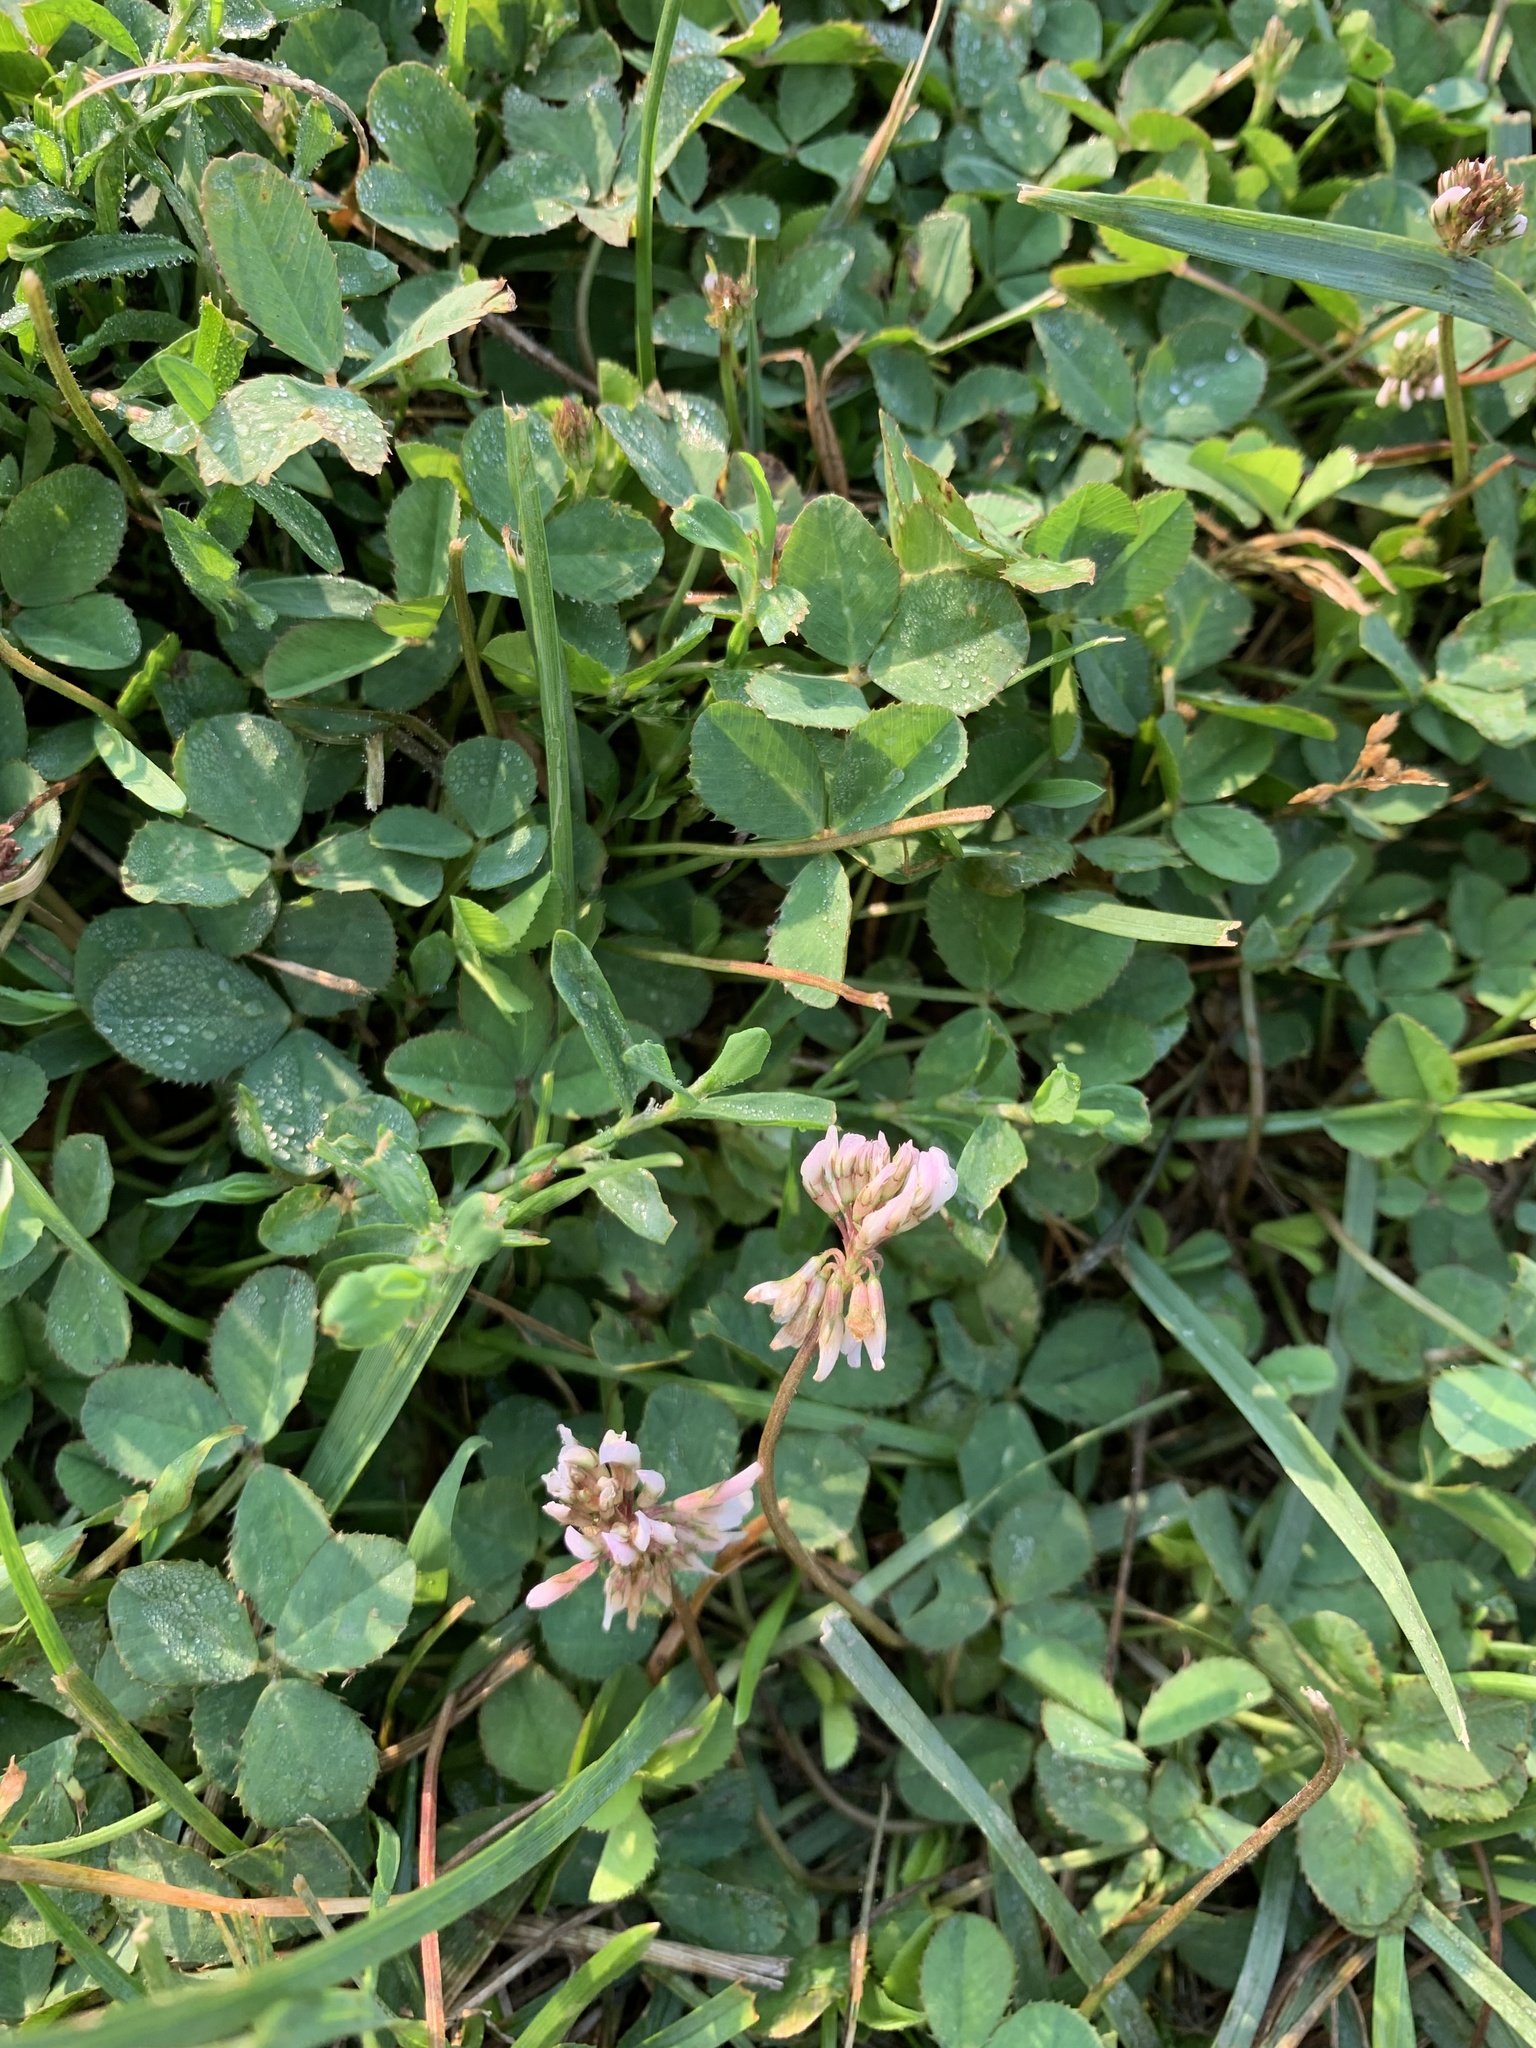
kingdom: Plantae
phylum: Tracheophyta
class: Magnoliopsida
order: Fabales
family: Fabaceae
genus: Trifolium
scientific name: Trifolium repens
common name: White clover
